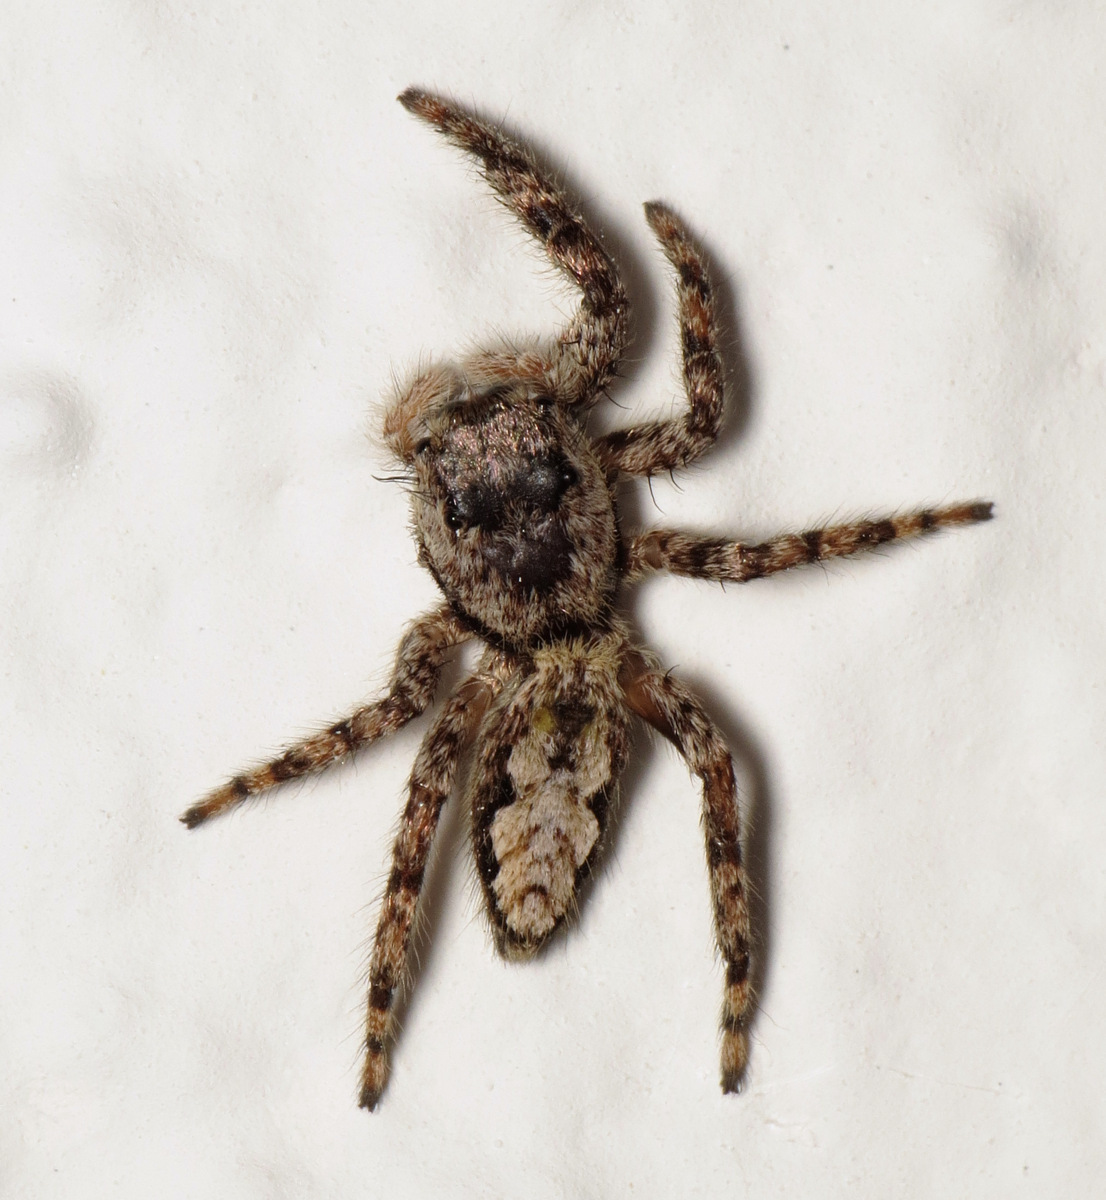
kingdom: Animalia
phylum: Arthropoda
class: Arachnida
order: Araneae
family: Salticidae
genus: Platycryptus
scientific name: Platycryptus undatus
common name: Tan jumping spider
